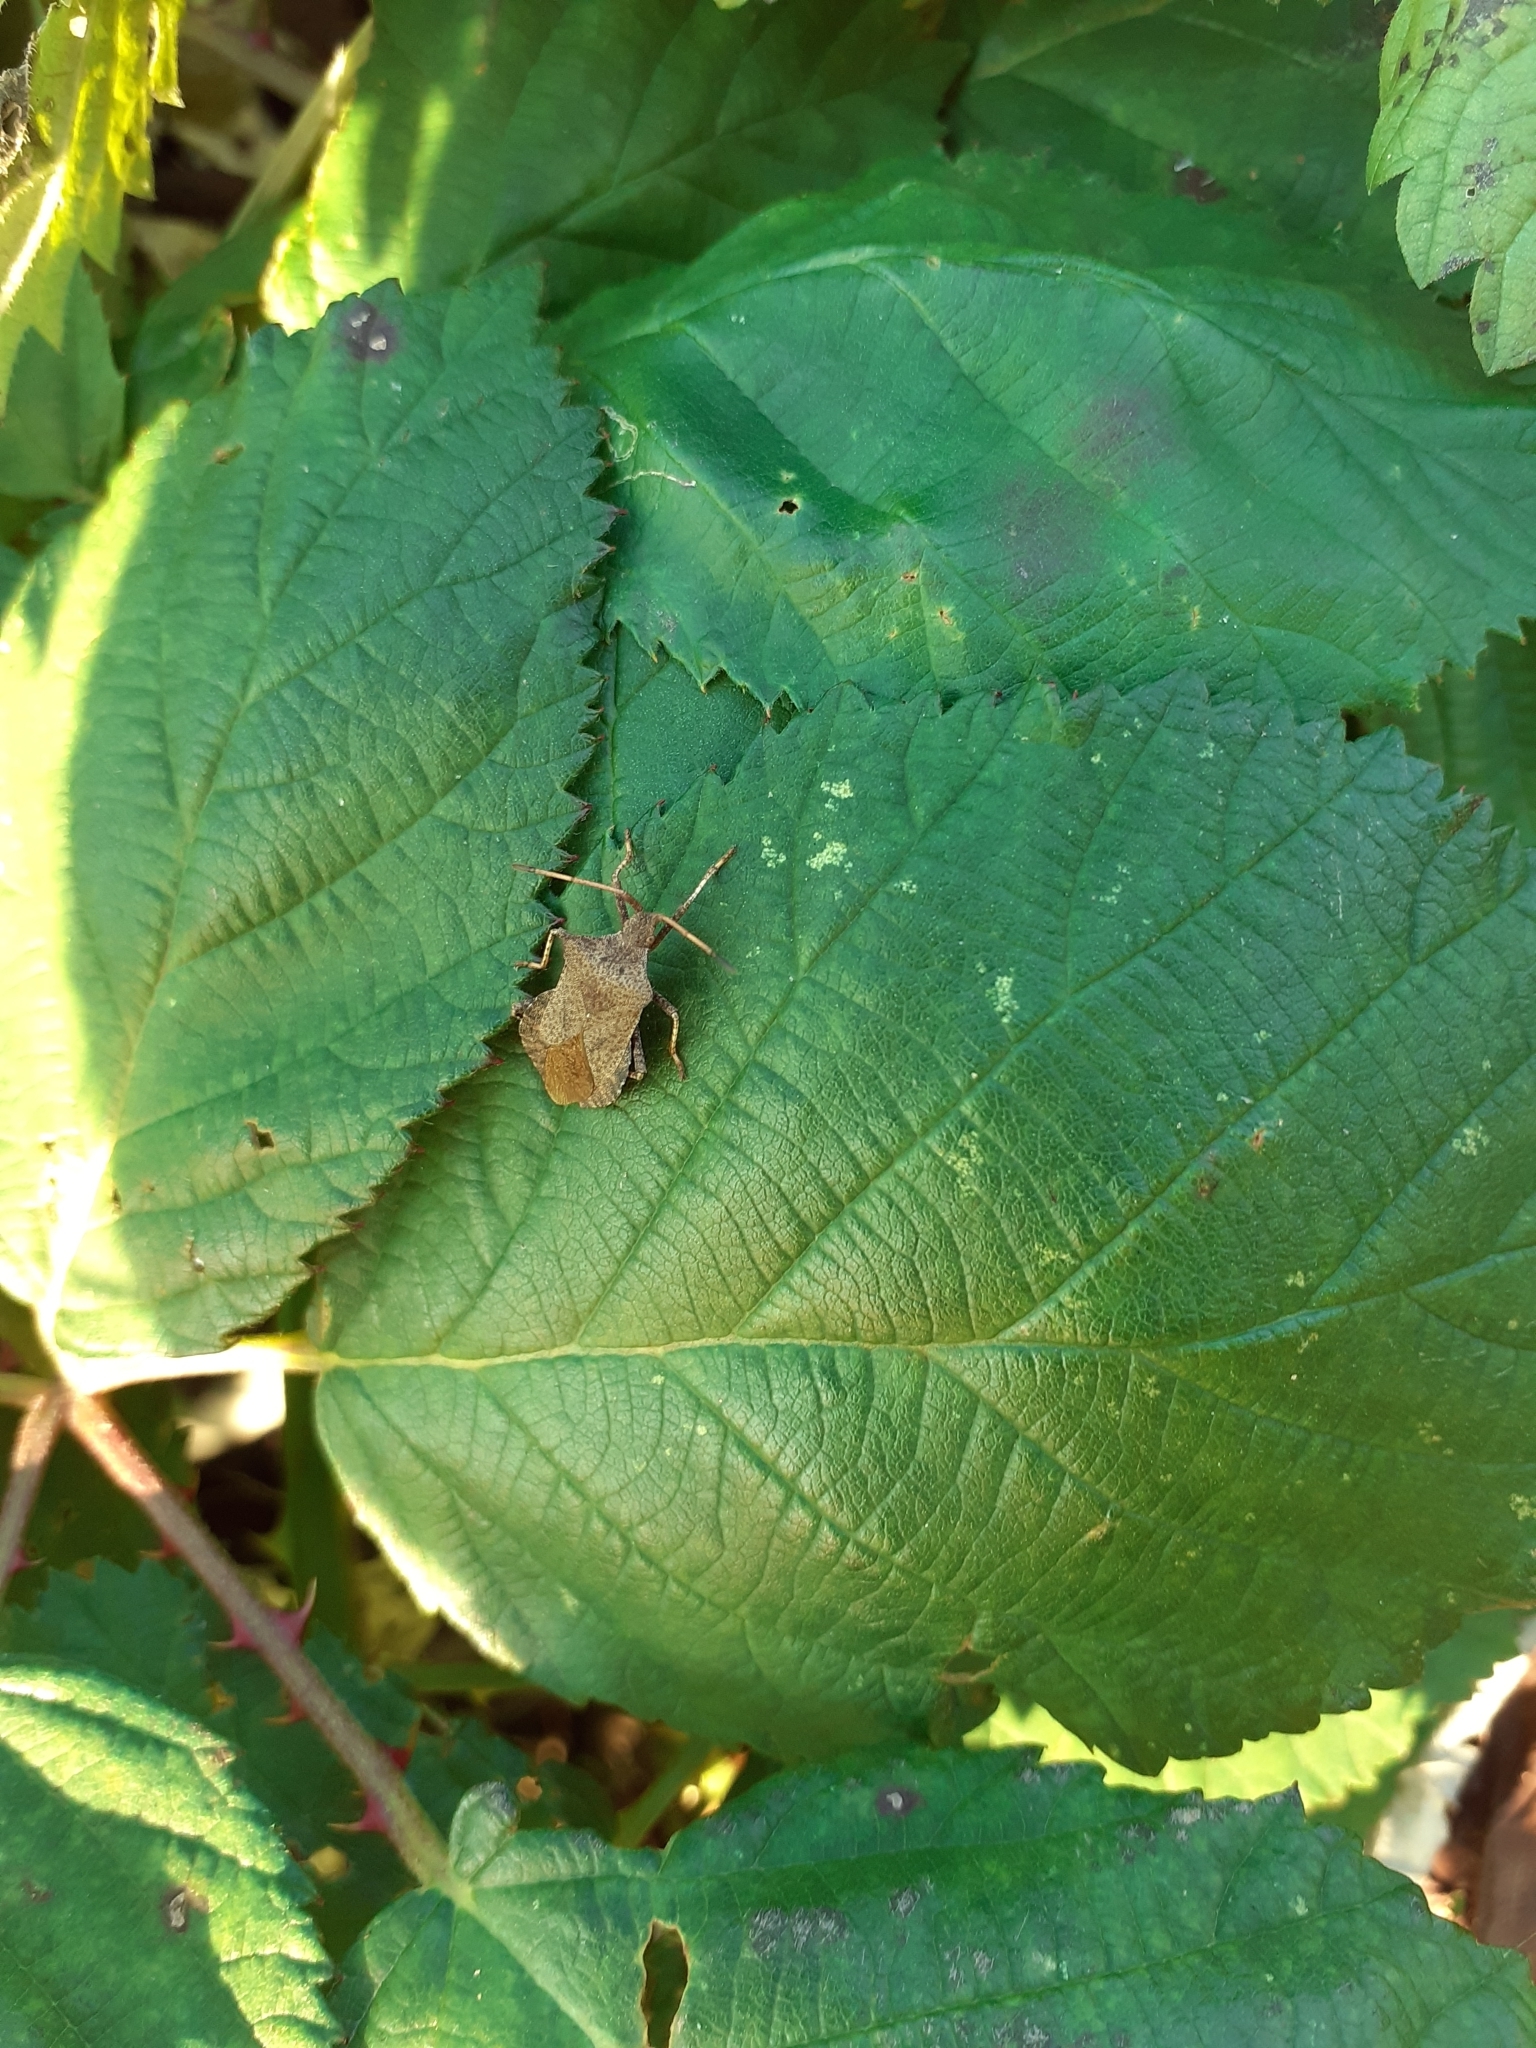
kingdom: Animalia
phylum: Arthropoda
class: Insecta
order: Hemiptera
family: Coreidae
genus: Coreus
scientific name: Coreus marginatus
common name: Dock bug
